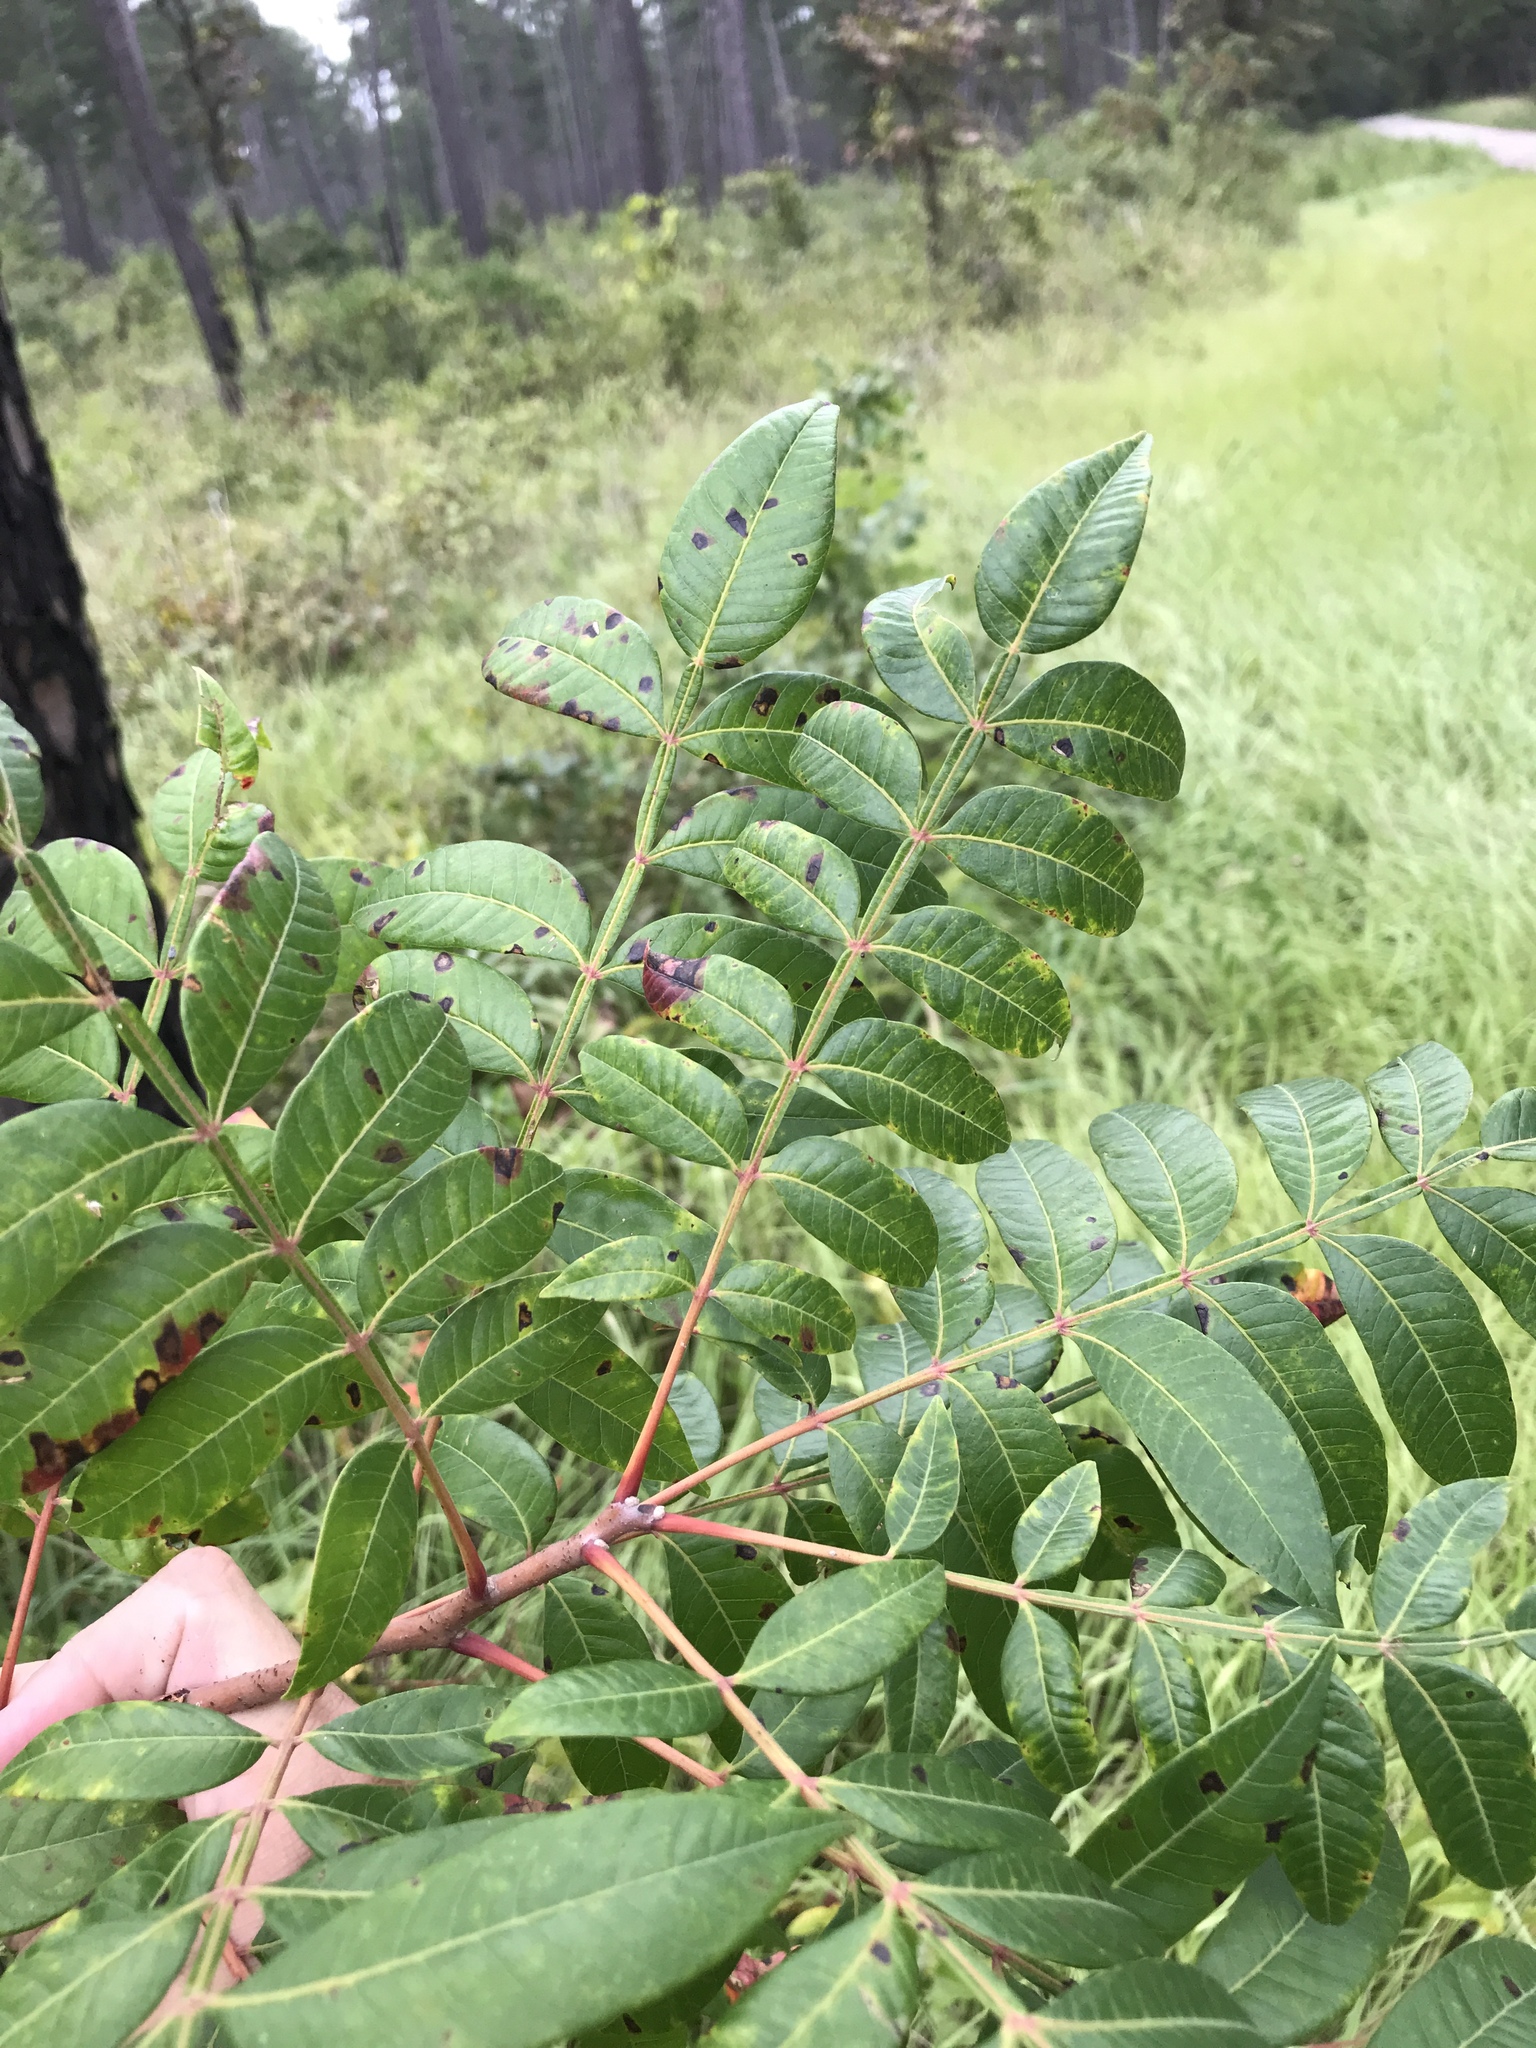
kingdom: Plantae
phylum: Tracheophyta
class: Magnoliopsida
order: Sapindales
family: Anacardiaceae
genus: Rhus
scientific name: Rhus copallina
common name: Shining sumac
